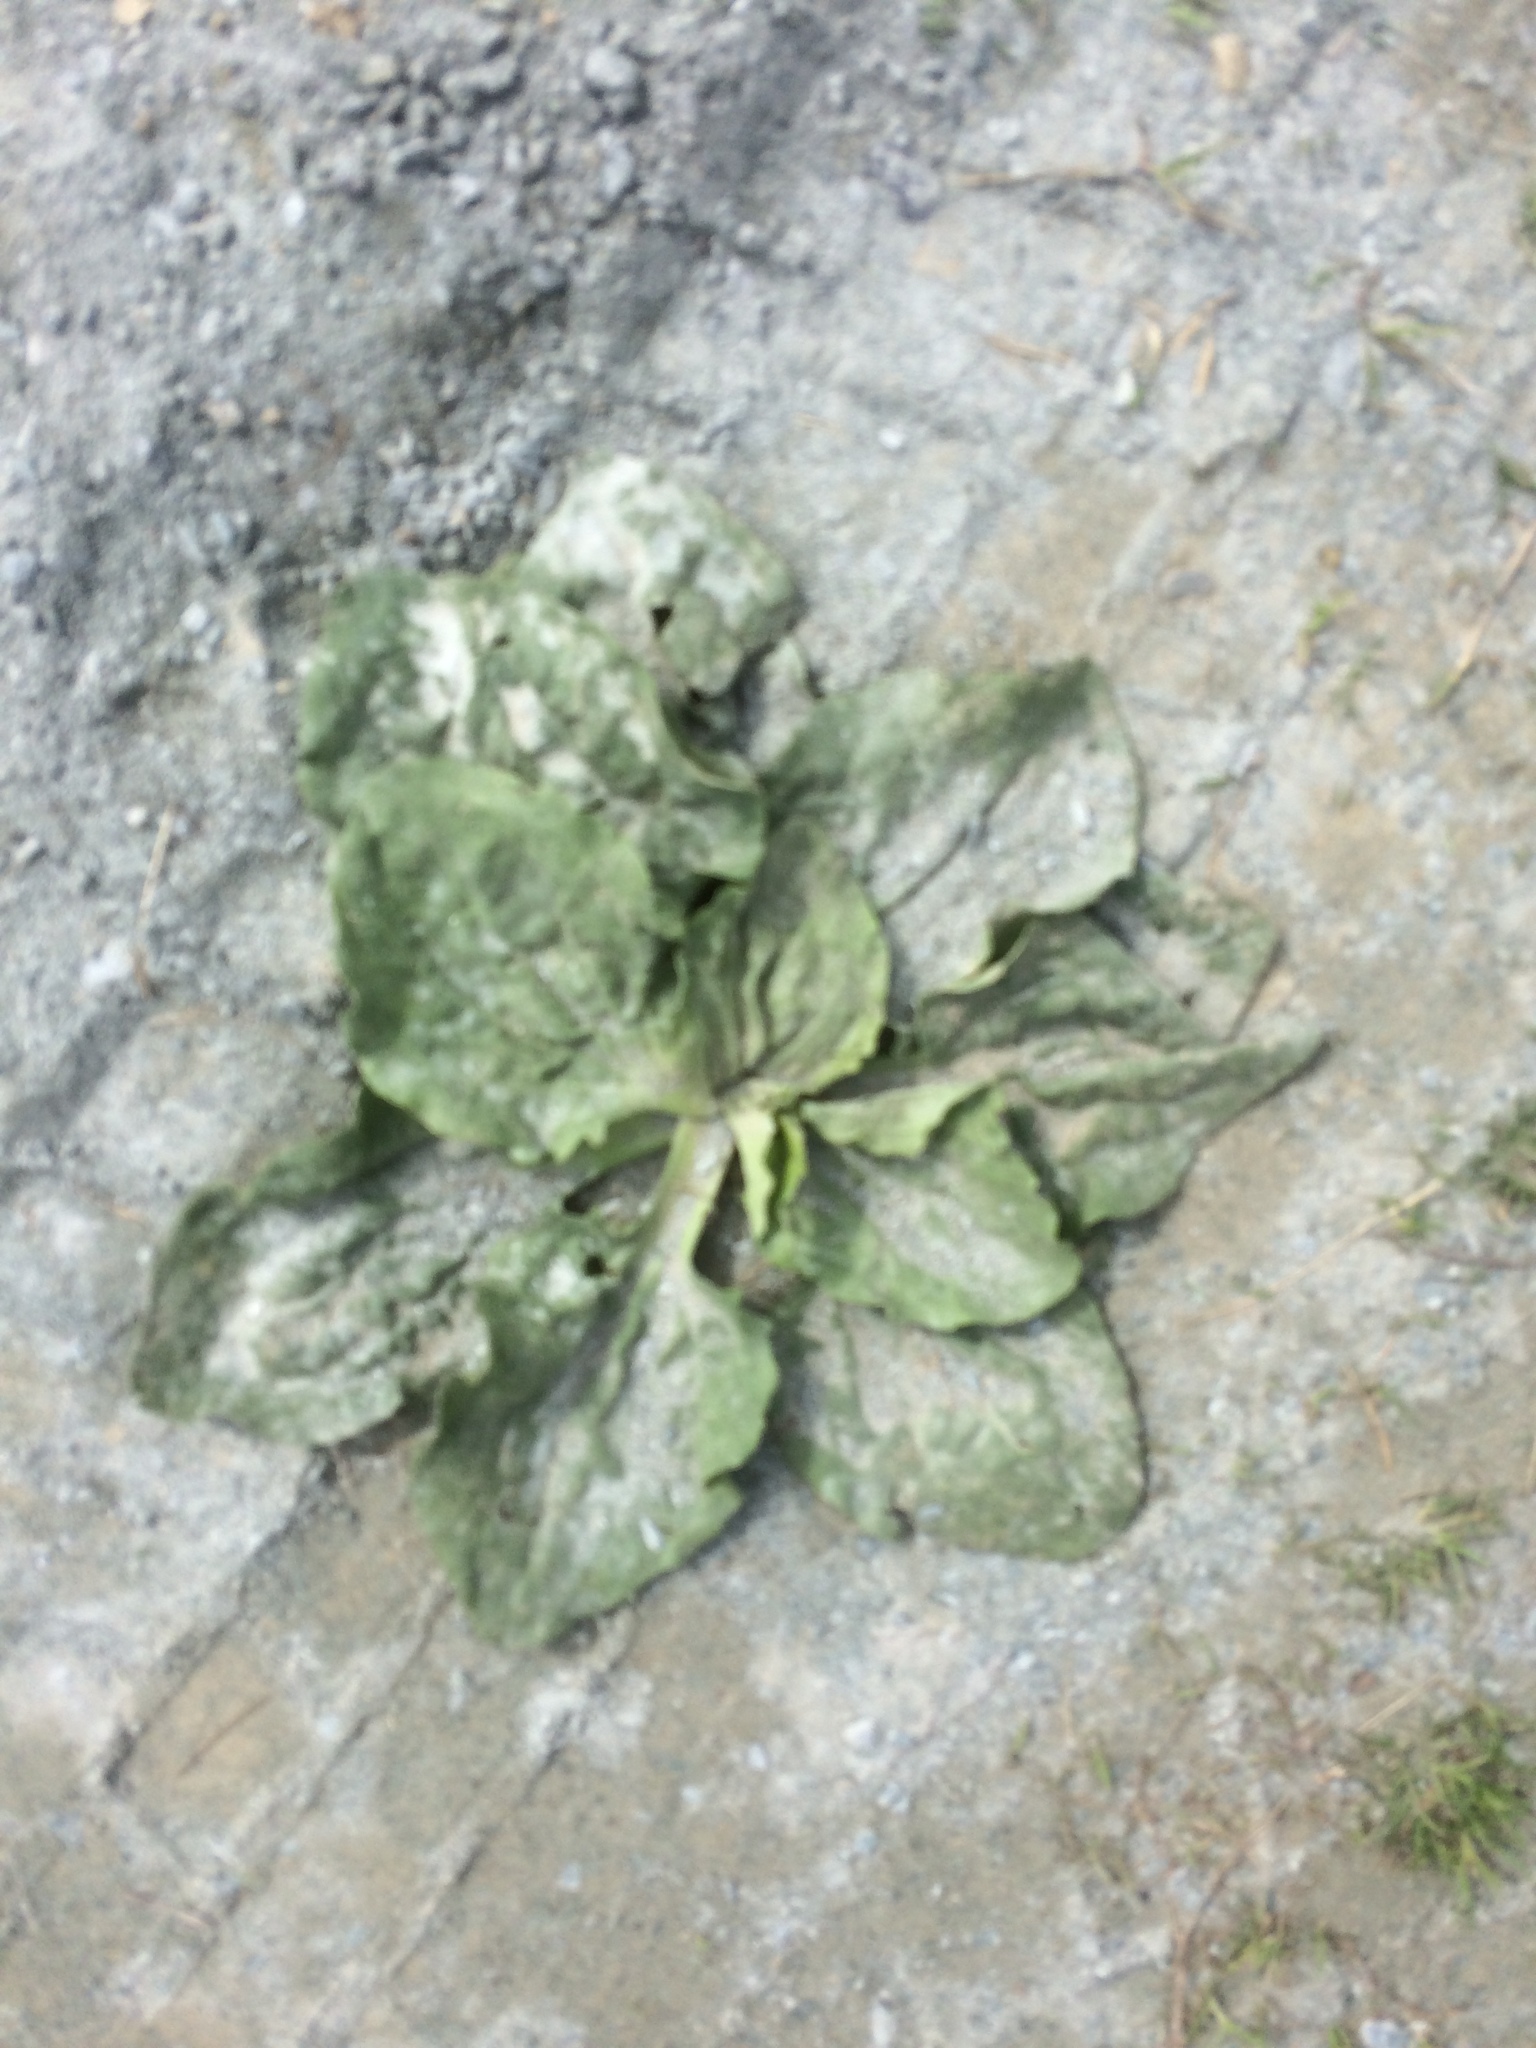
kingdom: Plantae
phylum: Tracheophyta
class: Magnoliopsida
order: Lamiales
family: Plantaginaceae
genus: Plantago
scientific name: Plantago major
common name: Common plantain
